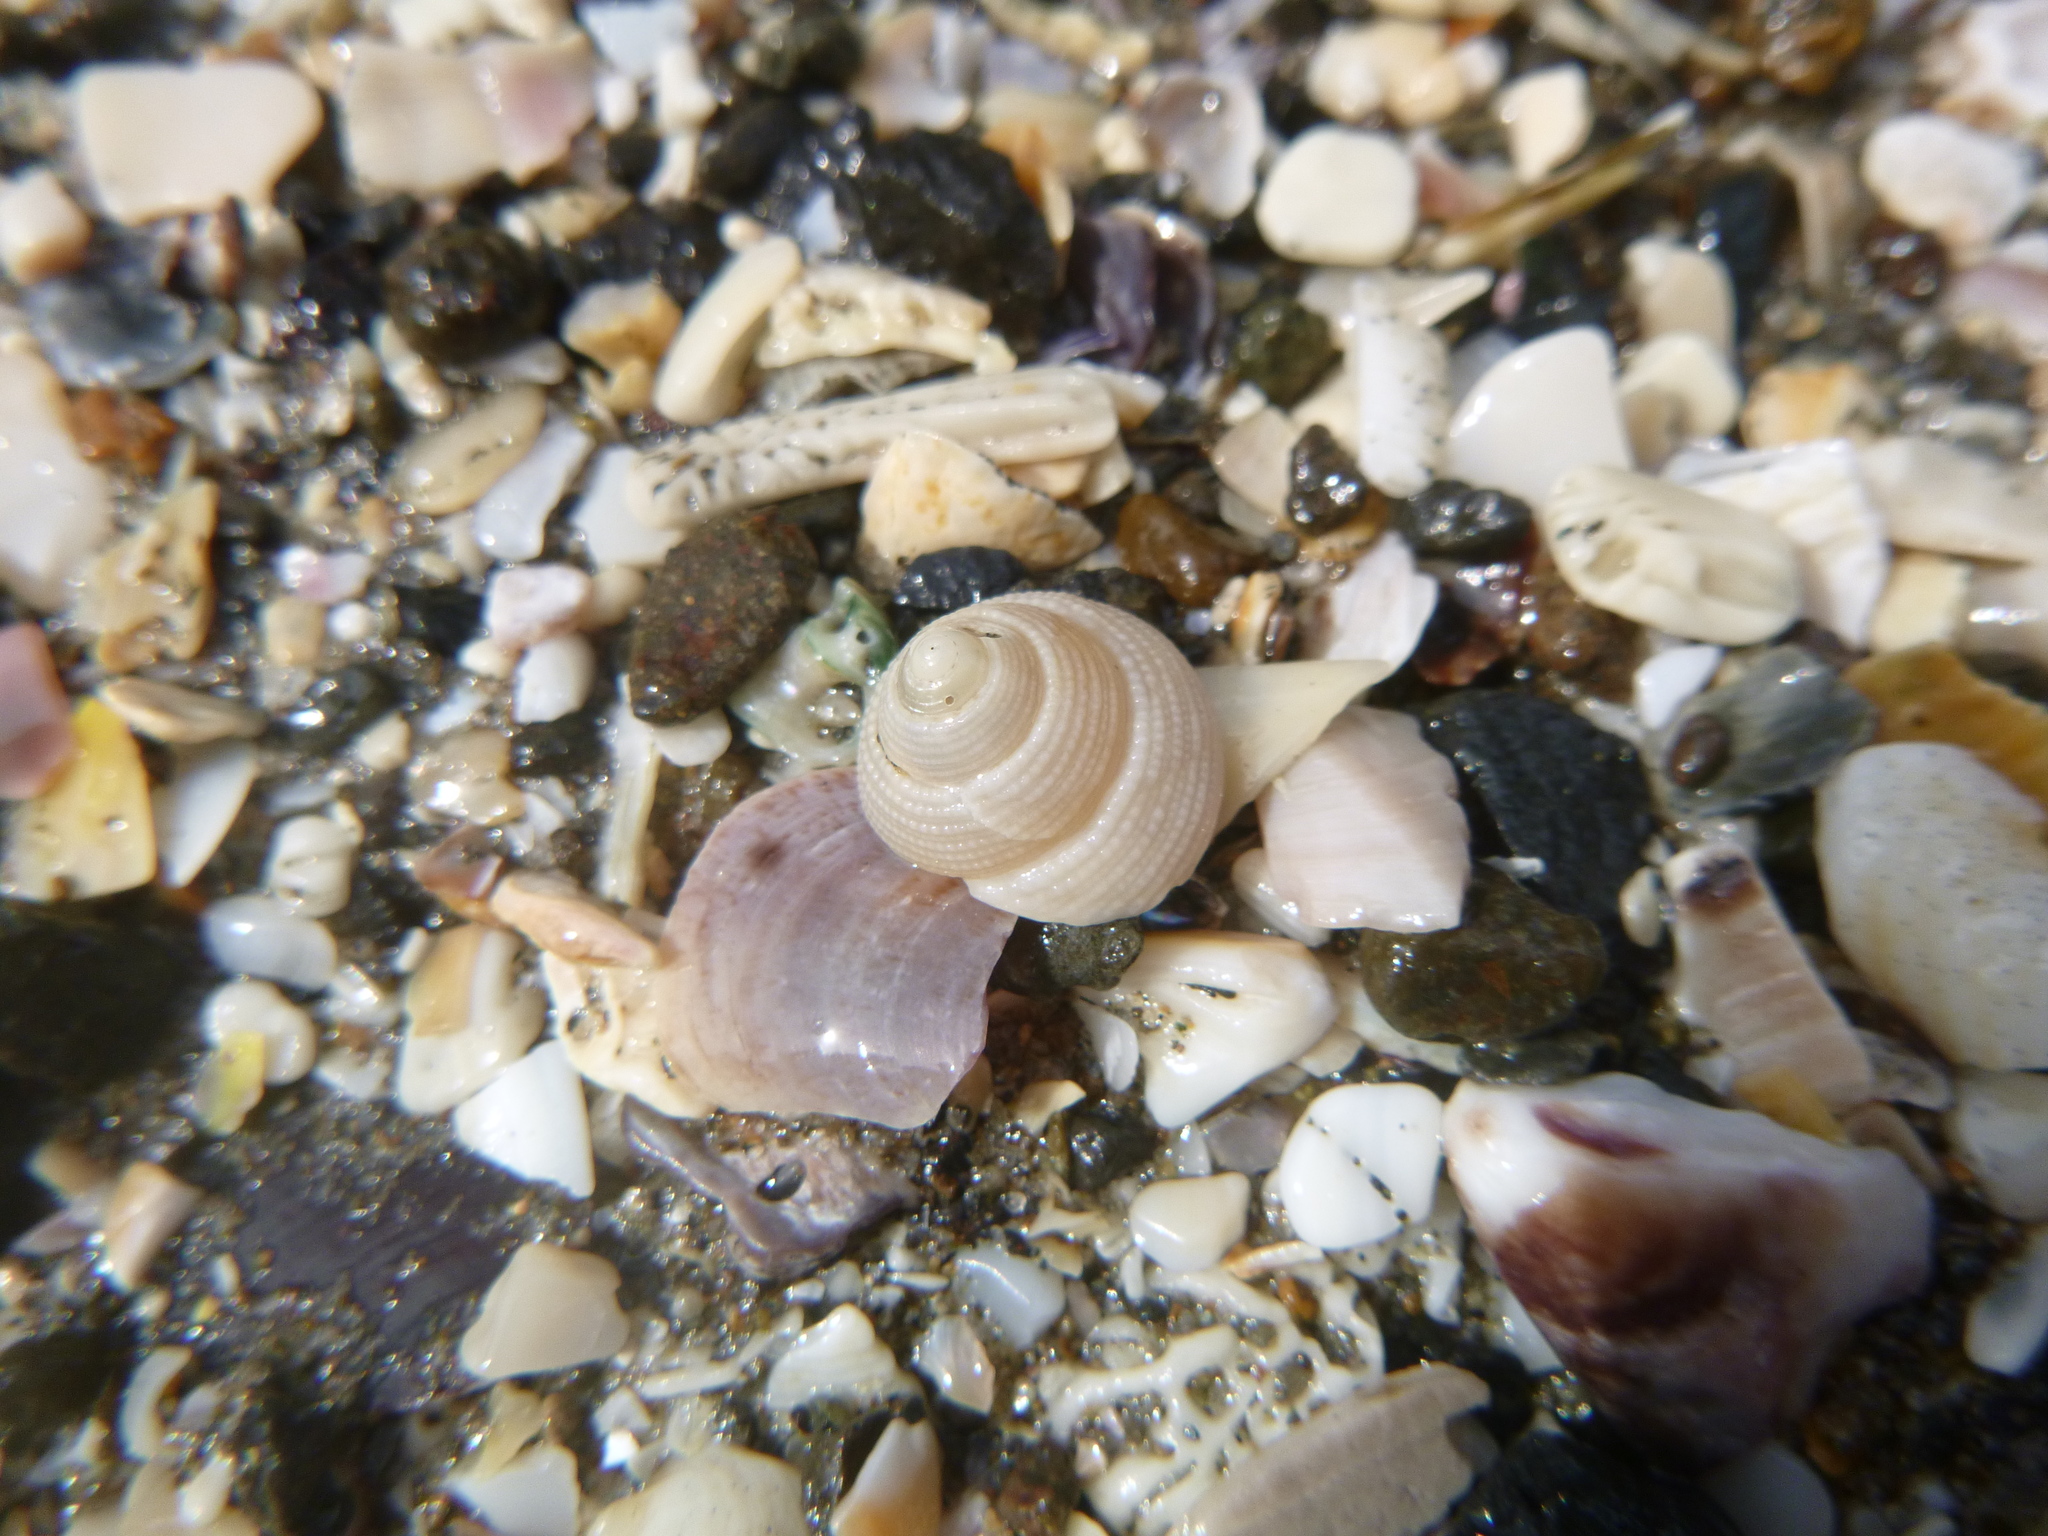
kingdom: Animalia
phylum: Mollusca
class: Gastropoda
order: Trochida
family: Trochidae
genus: Coelotrochus
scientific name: Coelotrochus tiaratus
